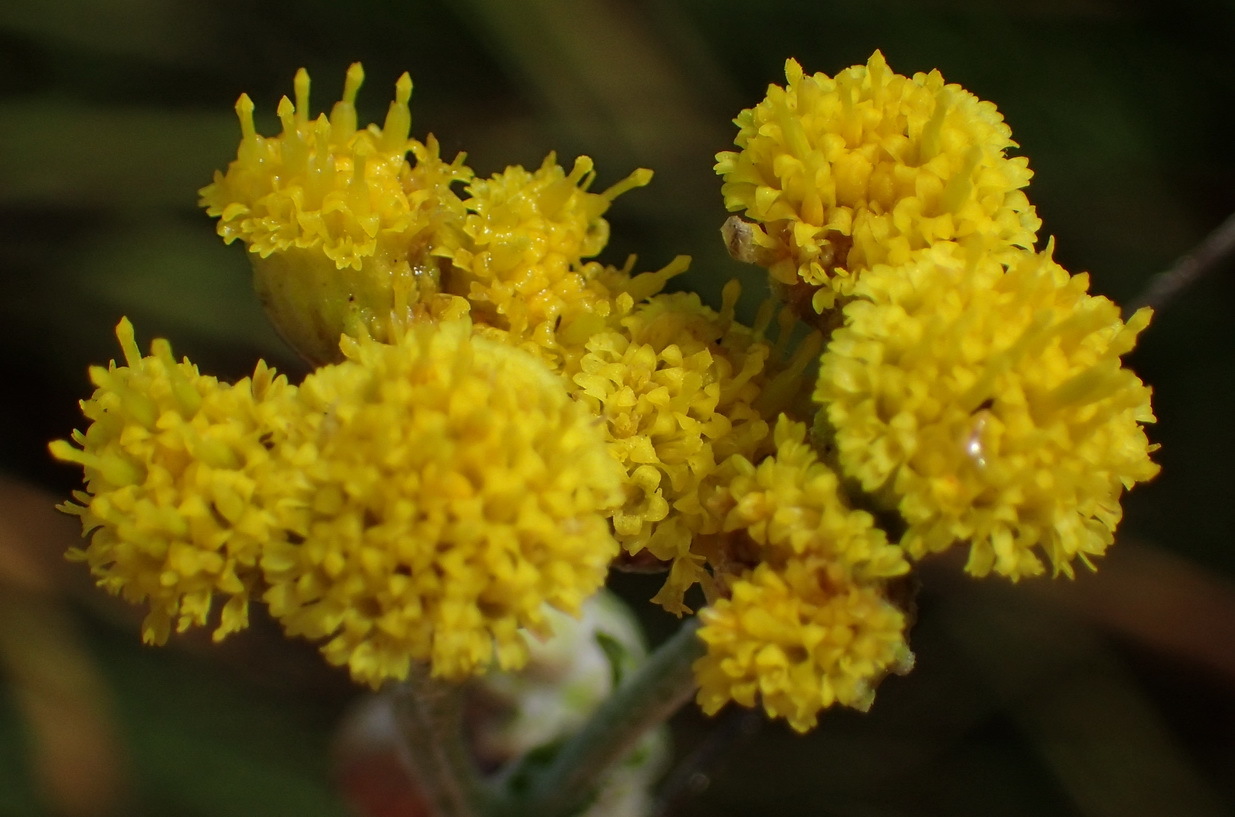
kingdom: Plantae
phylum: Tracheophyta
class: Magnoliopsida
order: Asterales
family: Asteraceae
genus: Nidorella
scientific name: Nidorella hottentotica
